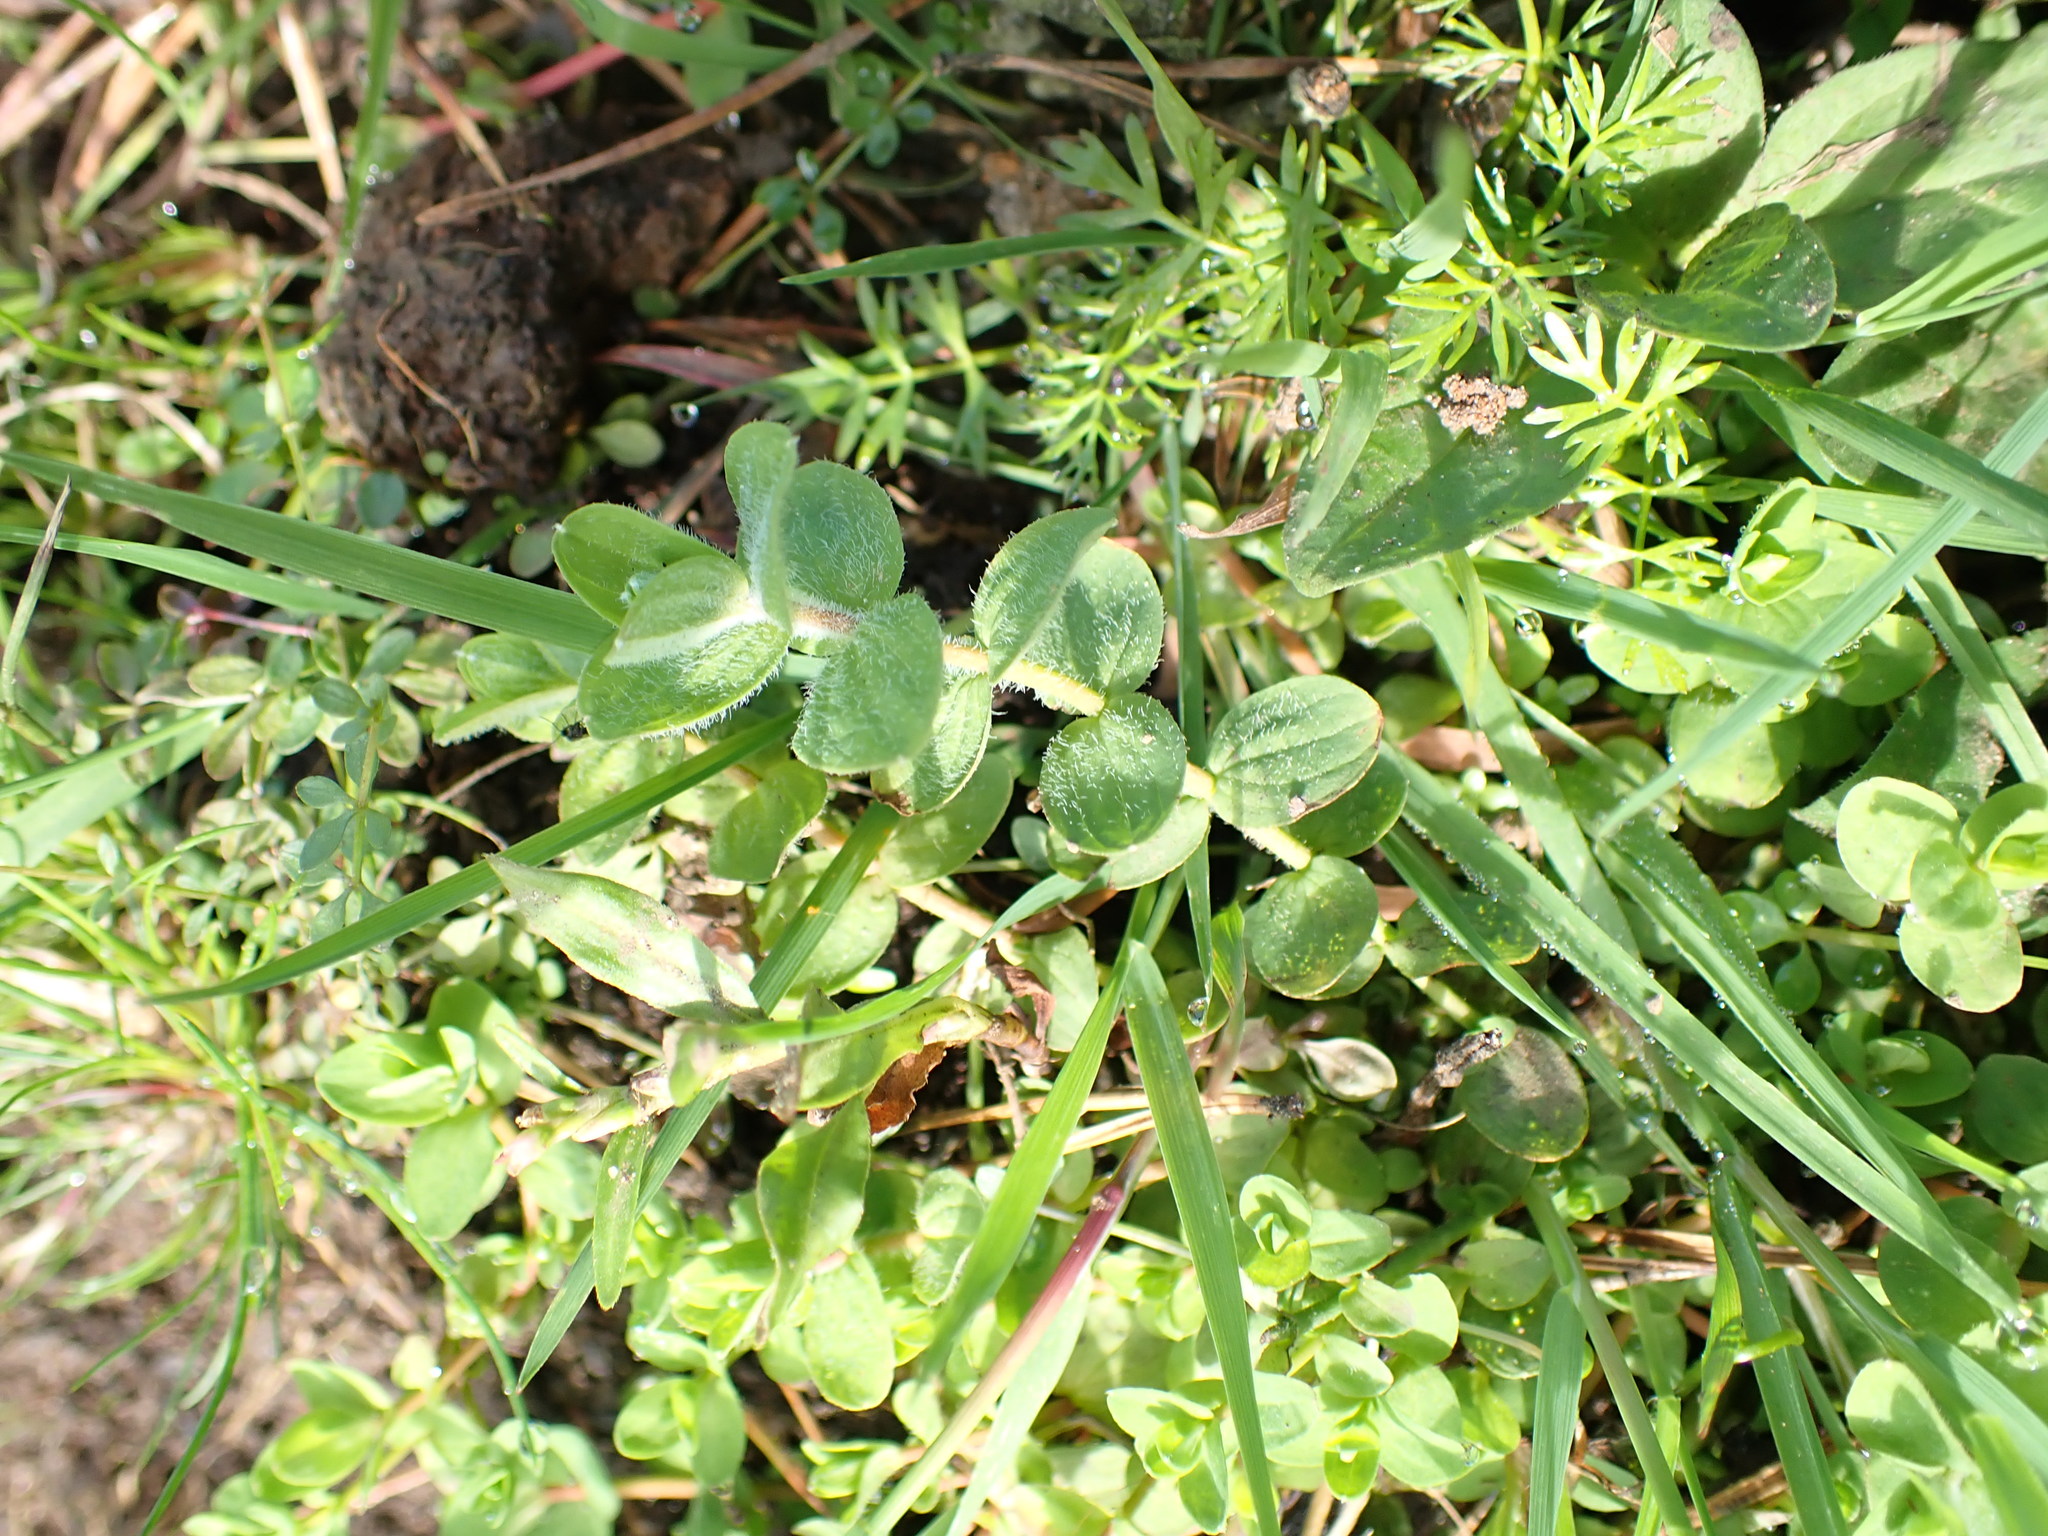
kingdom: Plantae
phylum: Tracheophyta
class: Magnoliopsida
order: Malpighiales
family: Hypericaceae
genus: Hypericum
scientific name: Hypericum elodes
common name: Marsh st. john's-wort
